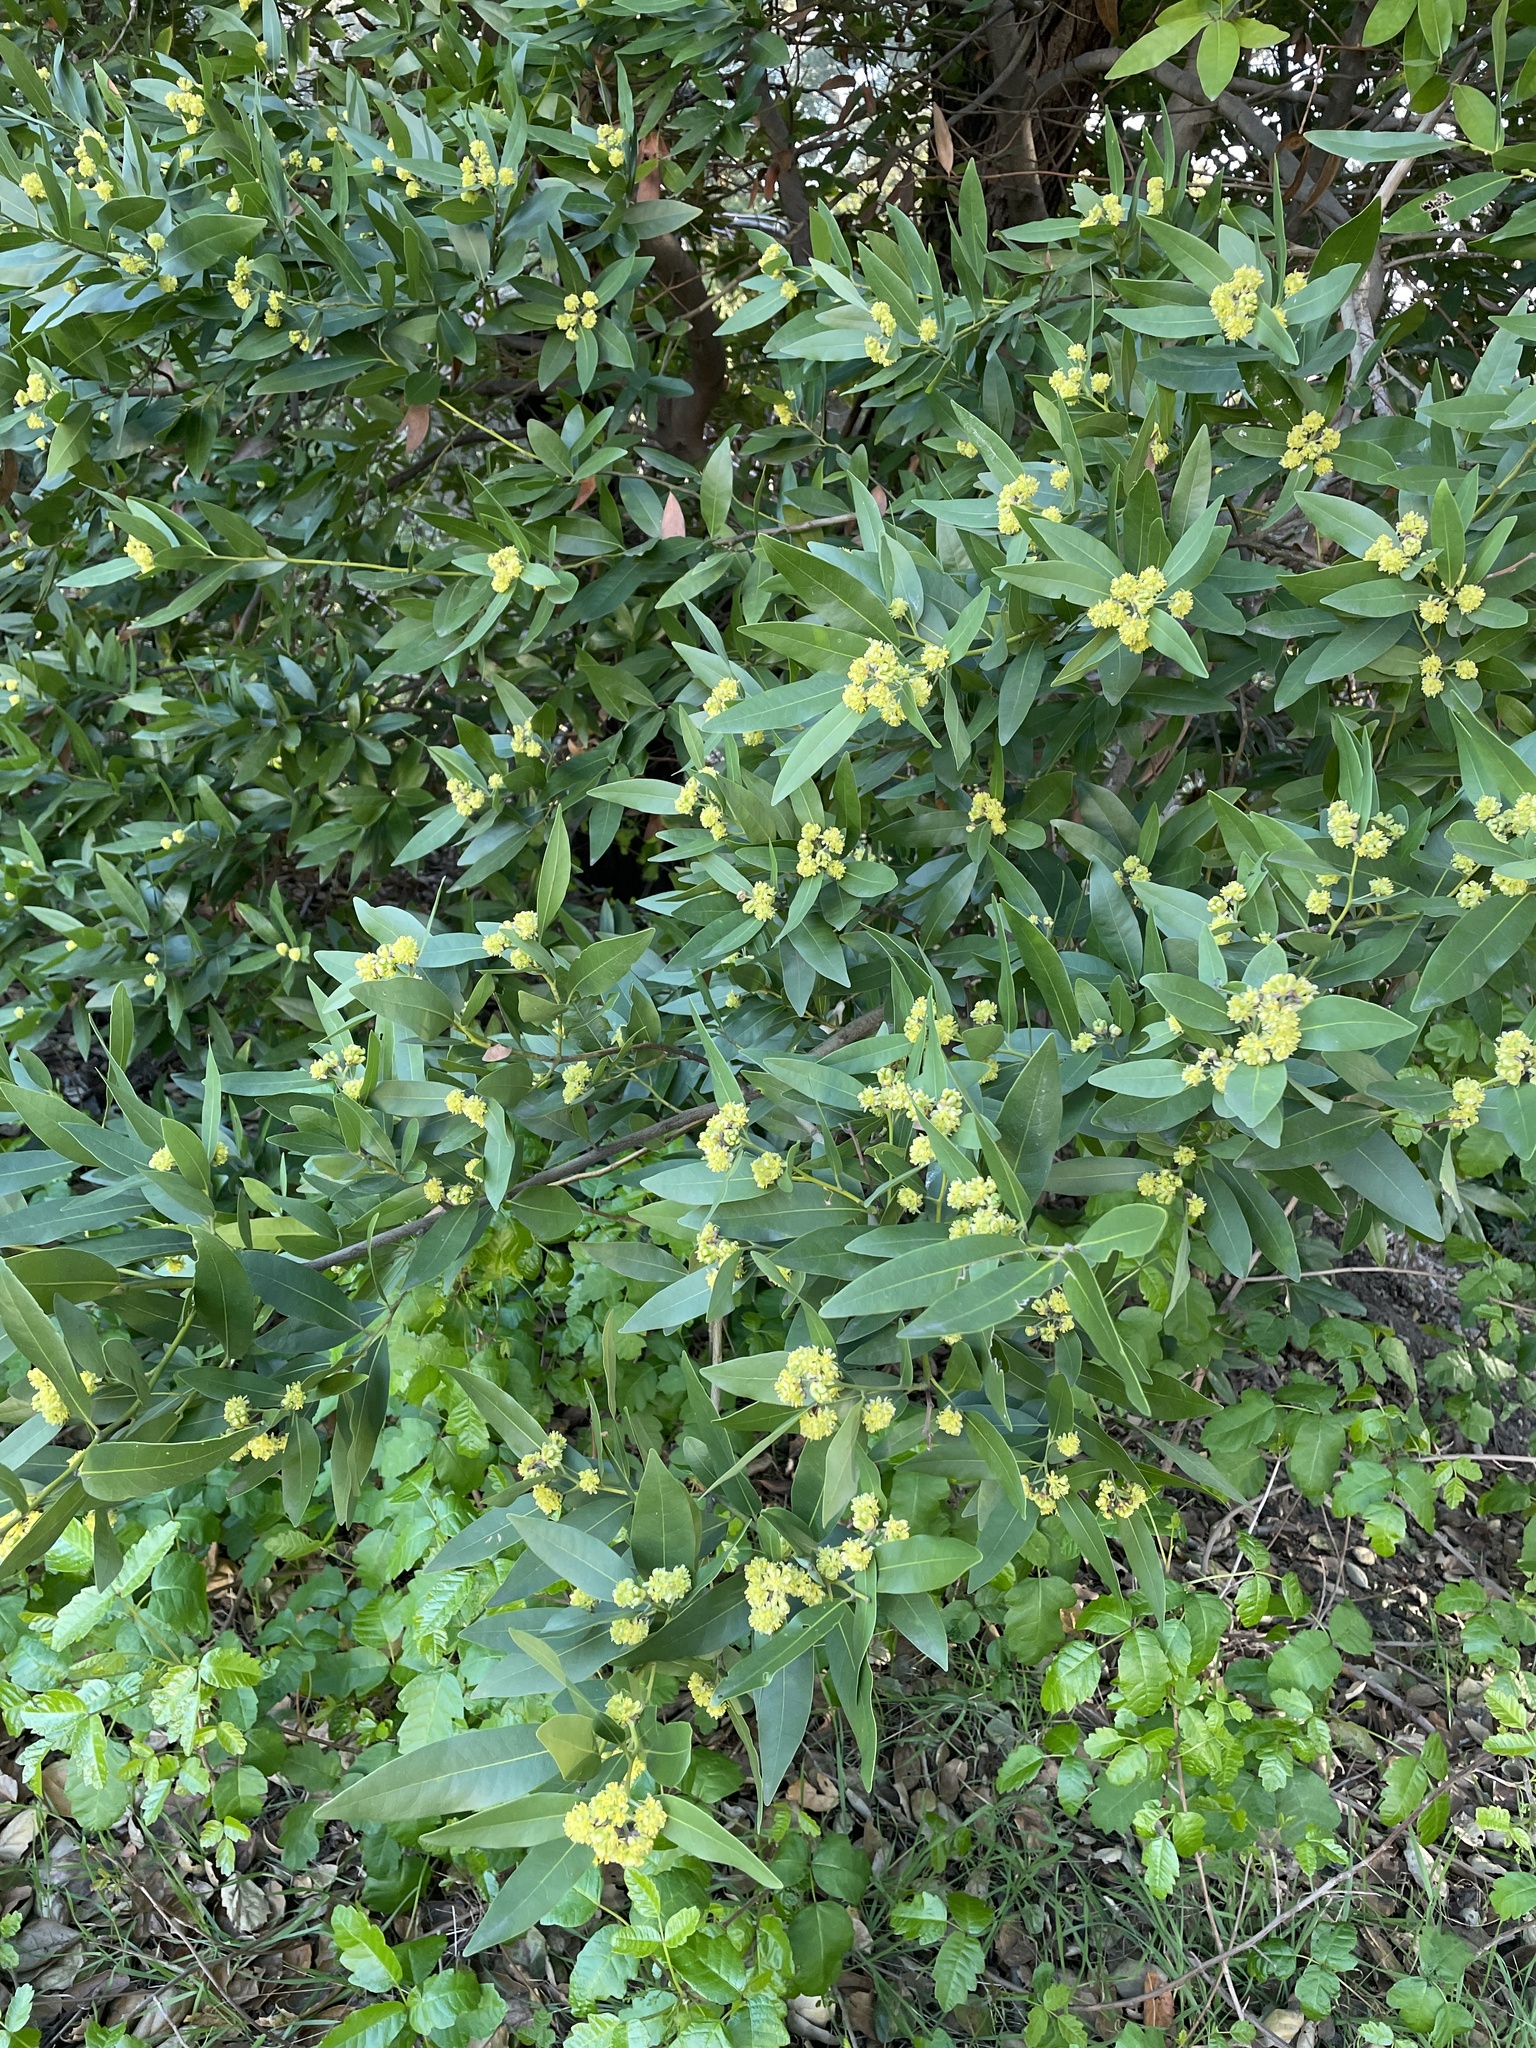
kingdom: Plantae
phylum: Tracheophyta
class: Magnoliopsida
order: Laurales
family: Lauraceae
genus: Umbellularia
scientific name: Umbellularia californica
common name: California bay
